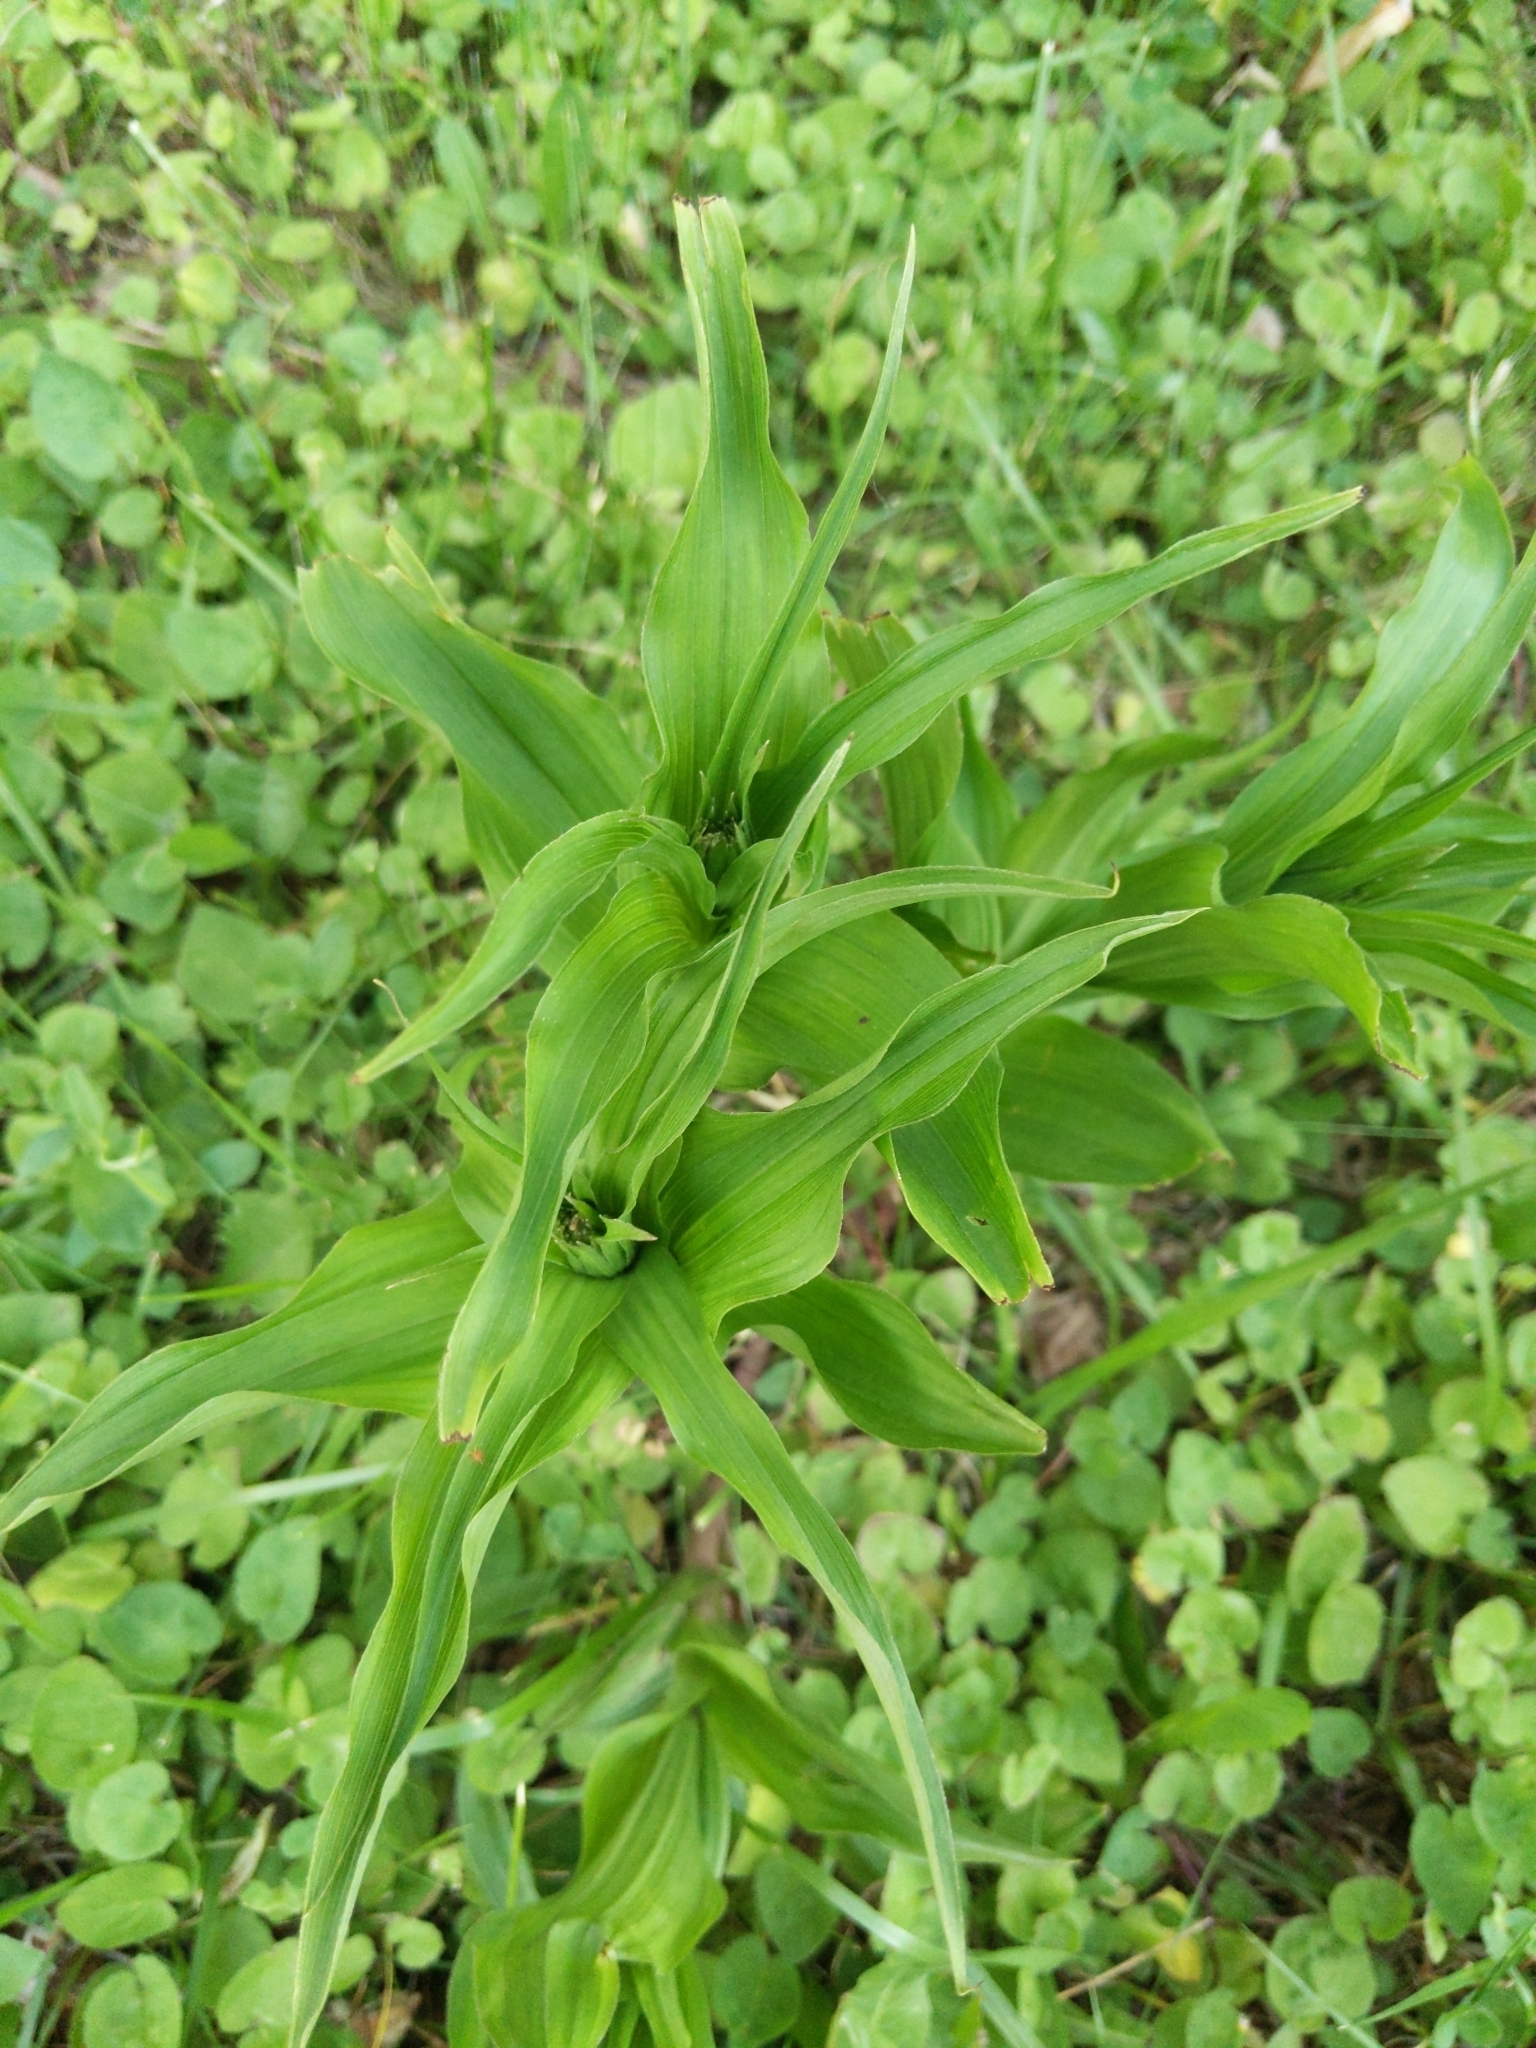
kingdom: Plantae
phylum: Tracheophyta
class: Liliopsida
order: Asparagales
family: Orchidaceae
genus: Epipactis
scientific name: Epipactis helleborine
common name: Broad-leaved helleborine
